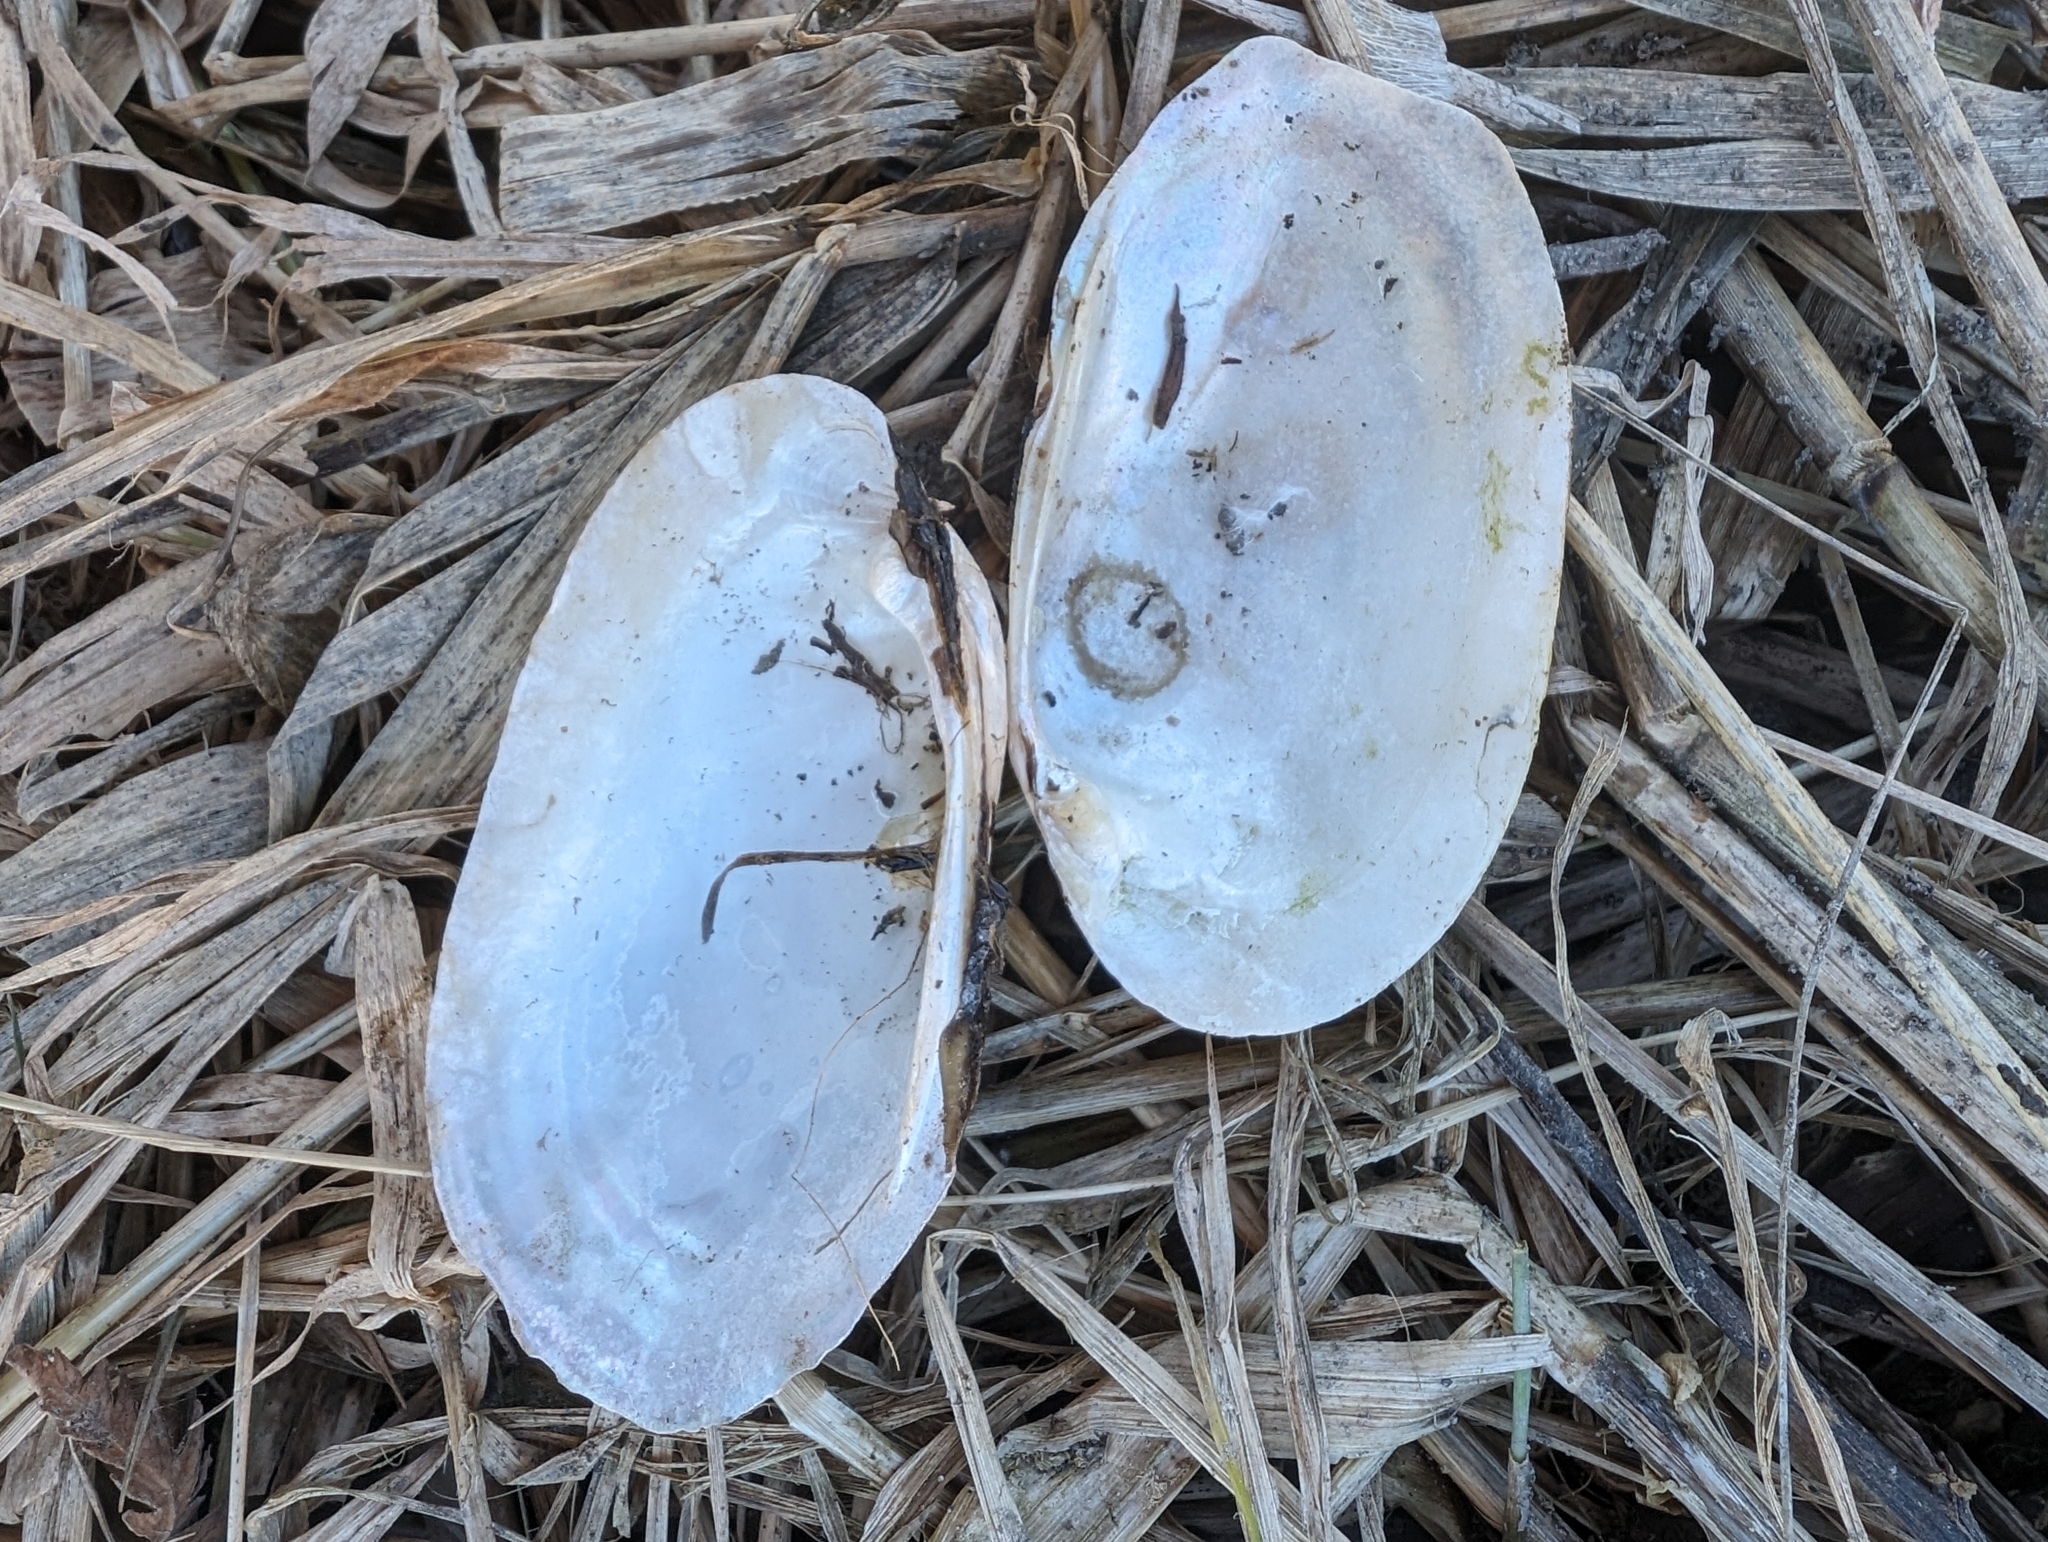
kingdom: Animalia
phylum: Mollusca
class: Bivalvia
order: Unionida
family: Unionidae
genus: Lampsilis
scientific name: Lampsilis radiata
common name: Eastern lampmussel
